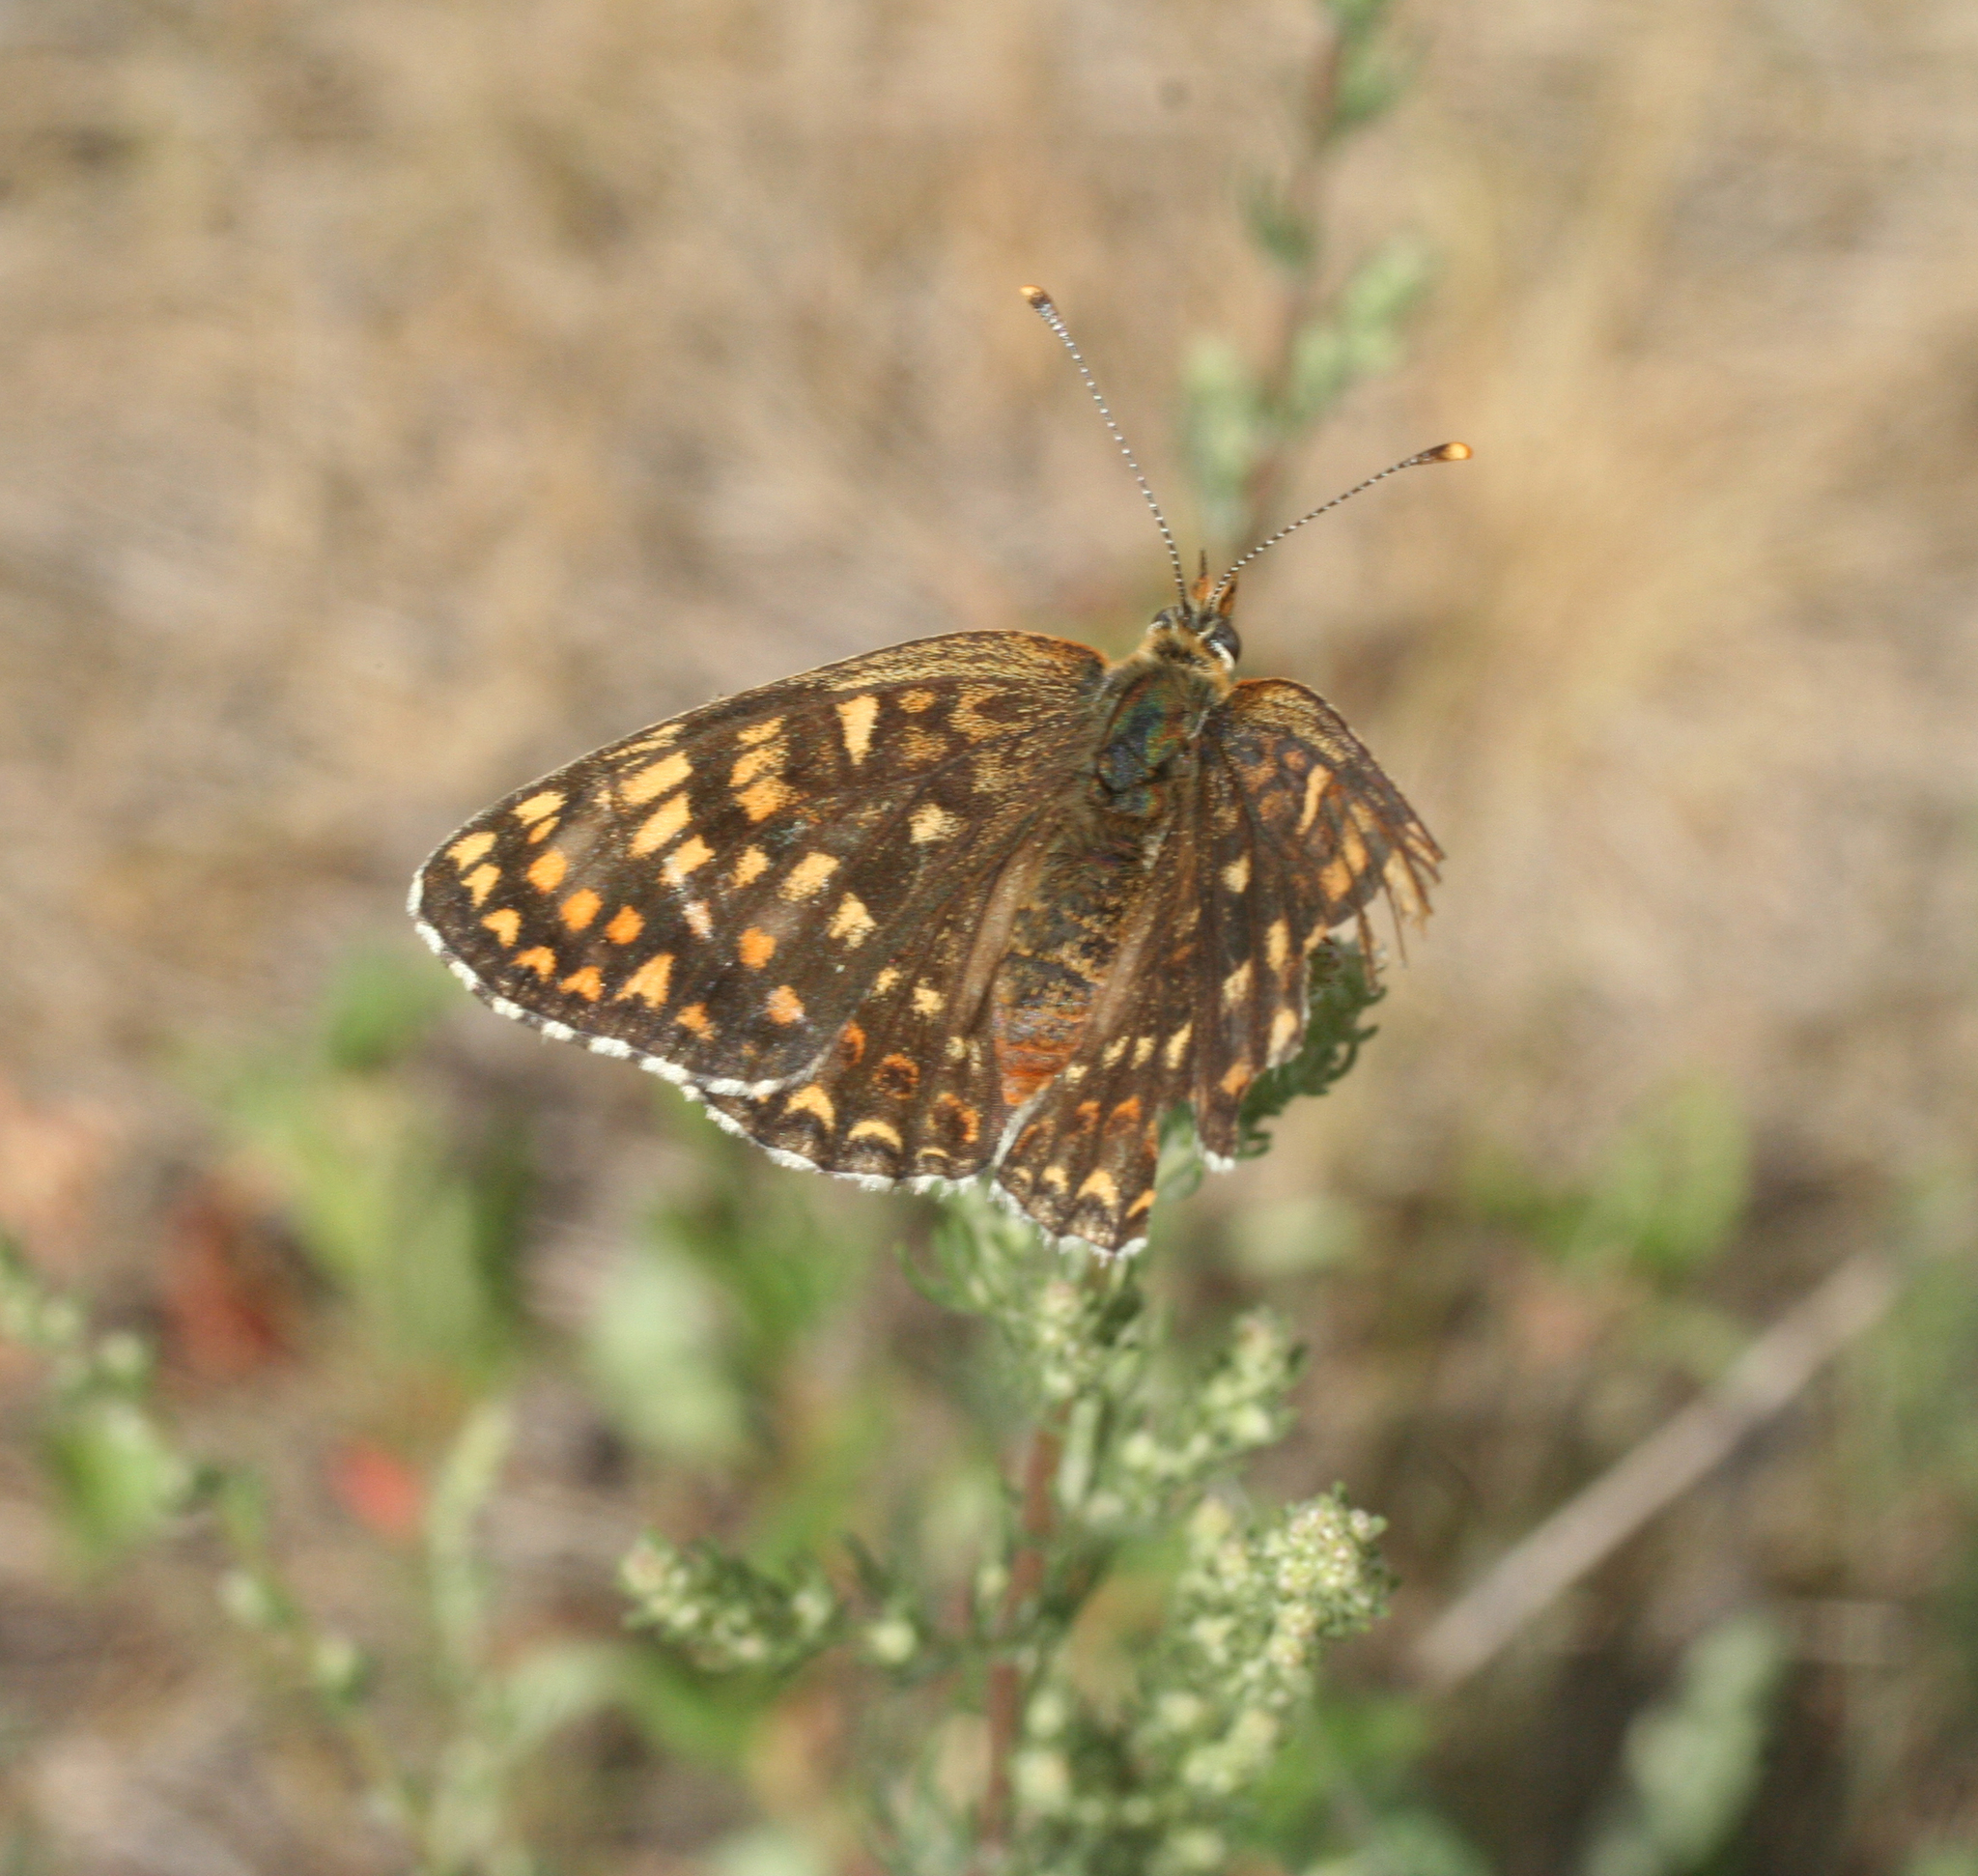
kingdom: Animalia
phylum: Arthropoda
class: Insecta
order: Lepidoptera
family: Nymphalidae
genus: Melitaea
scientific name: Melitaea phoebe
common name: Knapweed fritillary
